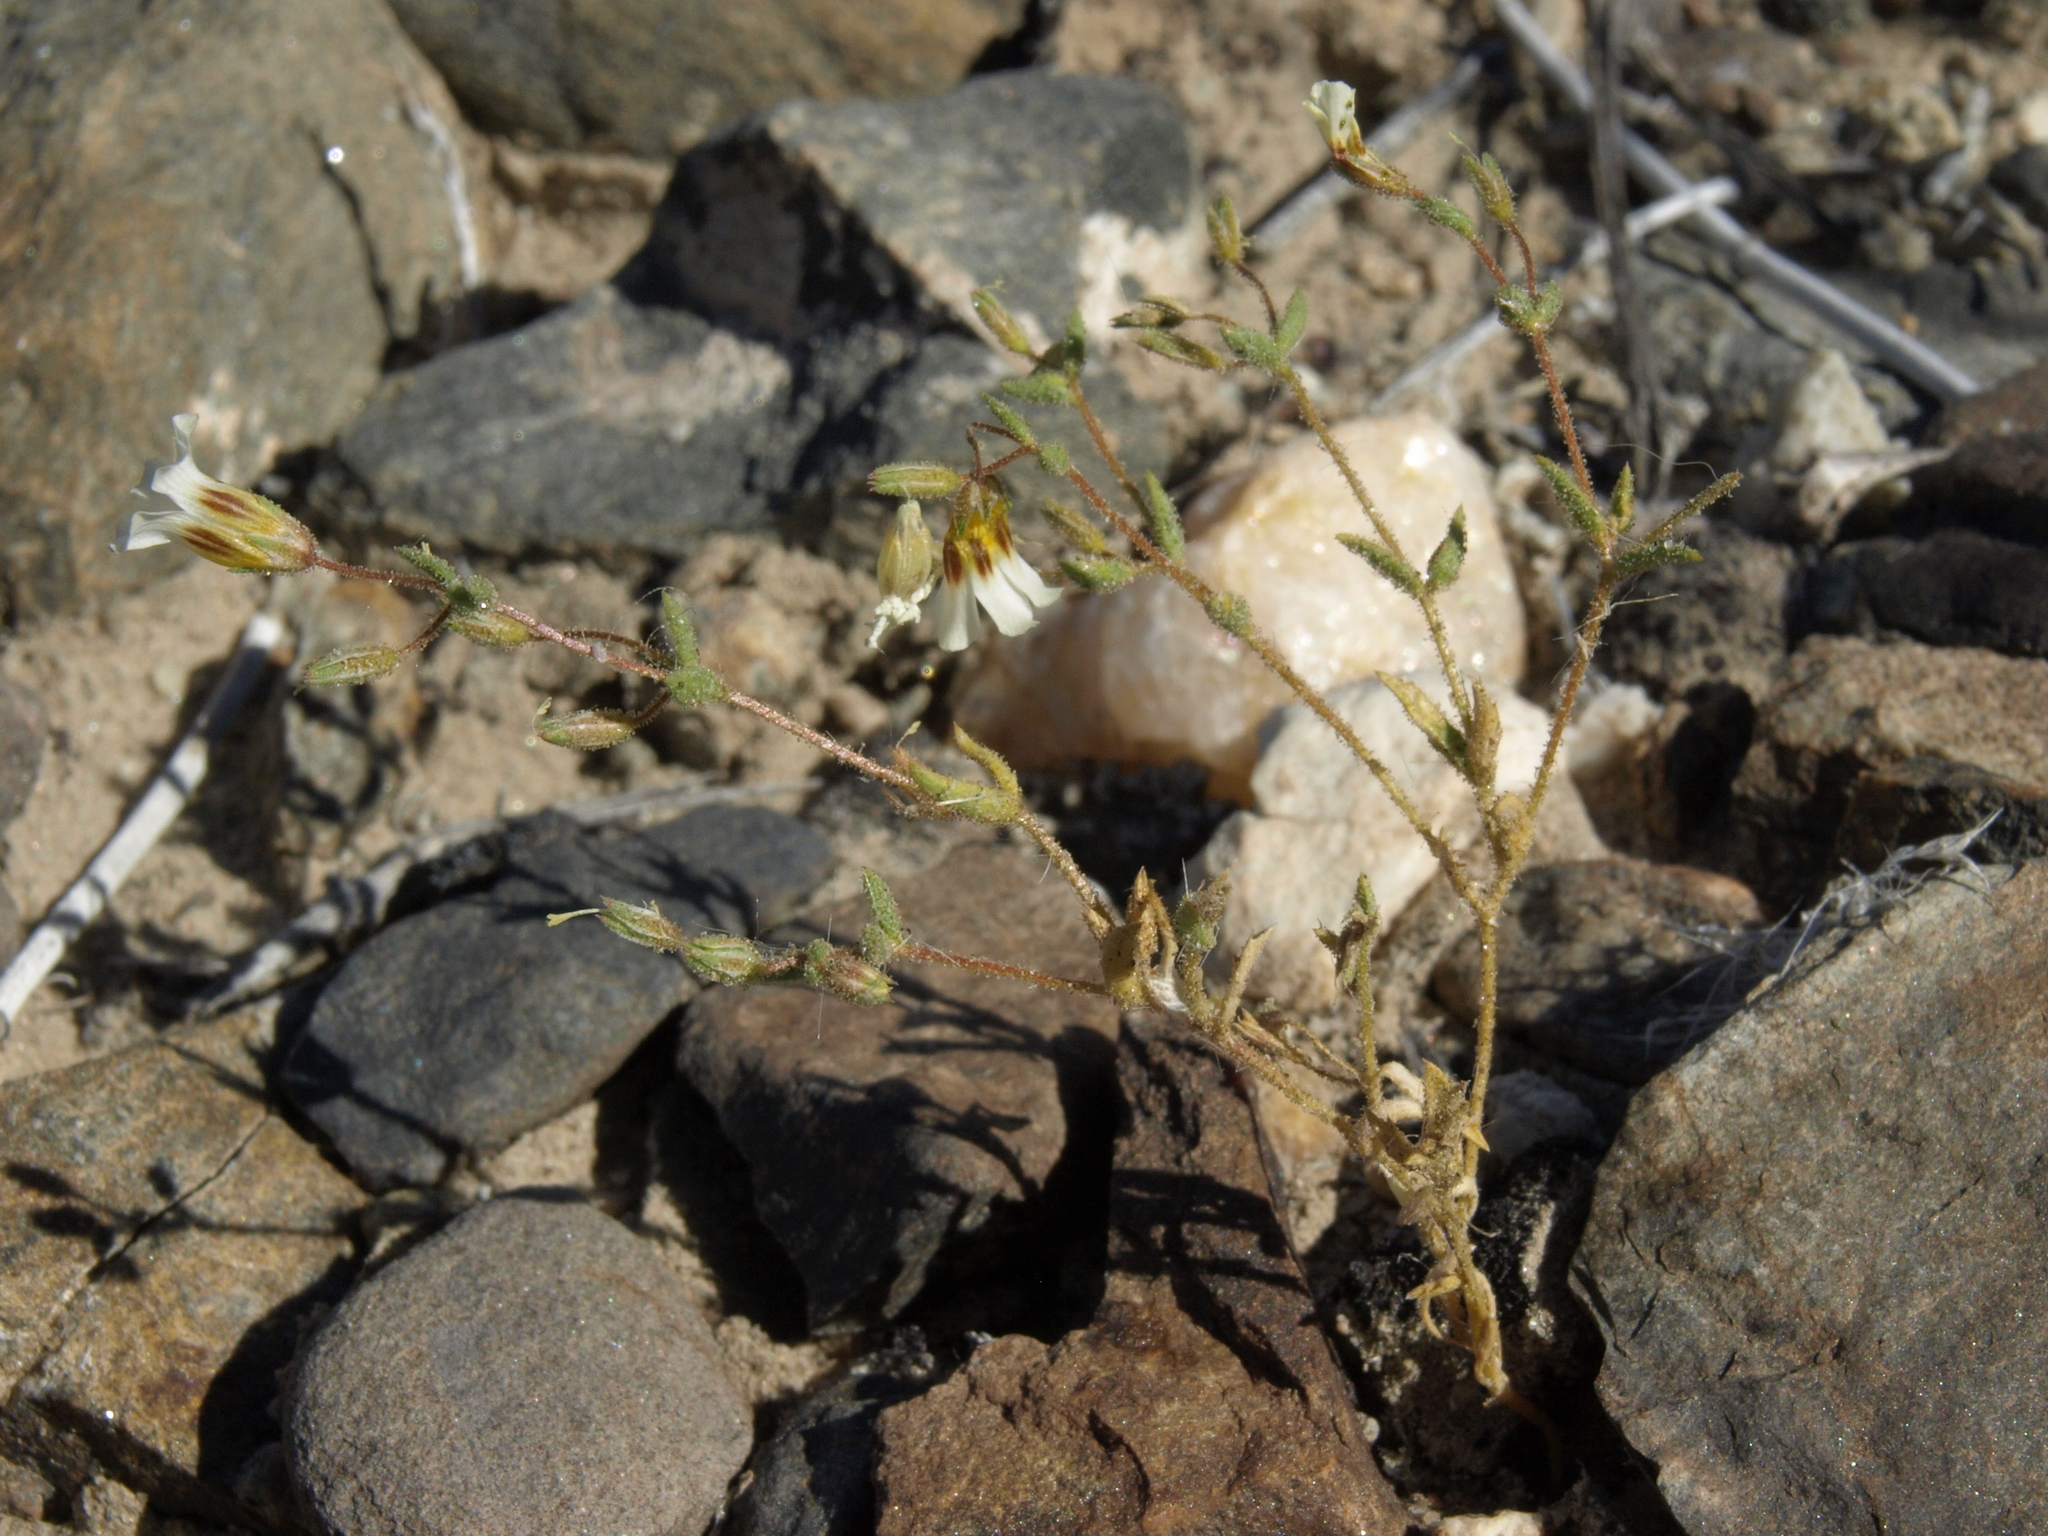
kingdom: Plantae
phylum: Tracheophyta
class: Magnoliopsida
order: Ericales
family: Polemoniaceae
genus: Linanthus
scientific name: Linanthus campanulatus
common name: Bellshape gilia
